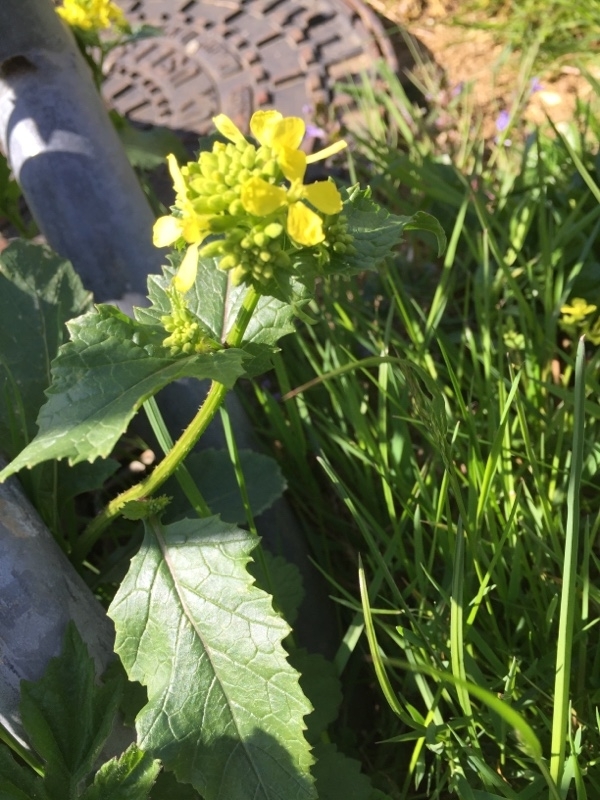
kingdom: Plantae
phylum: Tracheophyta
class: Magnoliopsida
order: Brassicales
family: Brassicaceae
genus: Sinapis
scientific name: Sinapis arvensis
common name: Charlock
